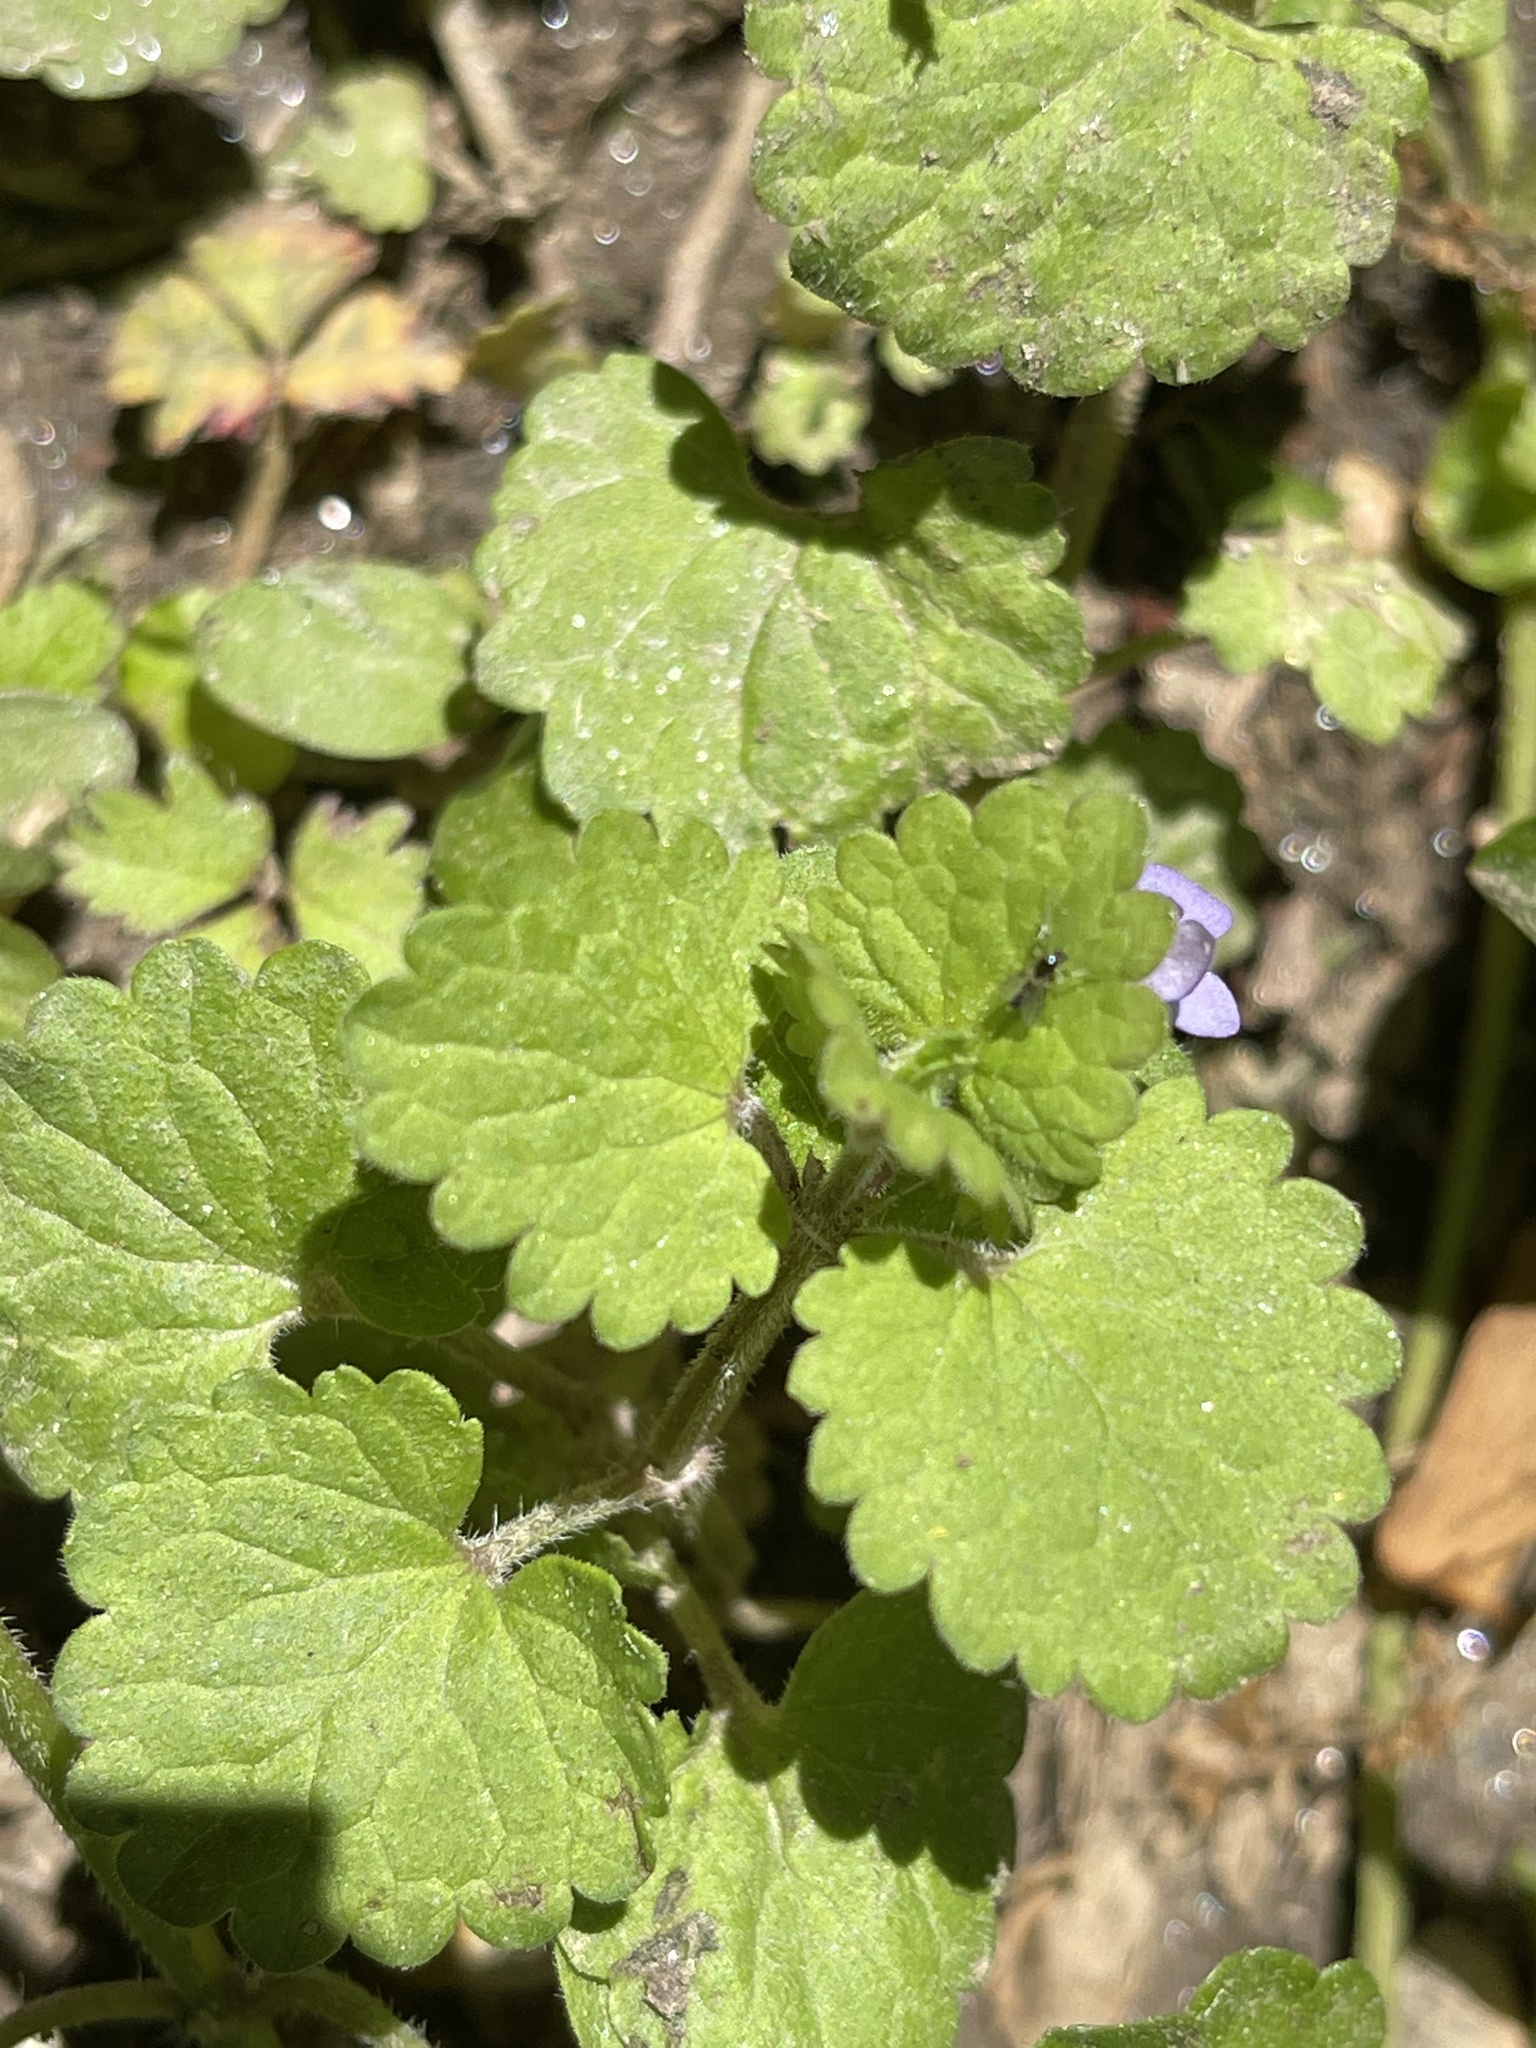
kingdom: Plantae
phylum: Tracheophyta
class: Magnoliopsida
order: Lamiales
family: Lamiaceae
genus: Glechoma
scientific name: Glechoma hederacea
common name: Ground ivy
